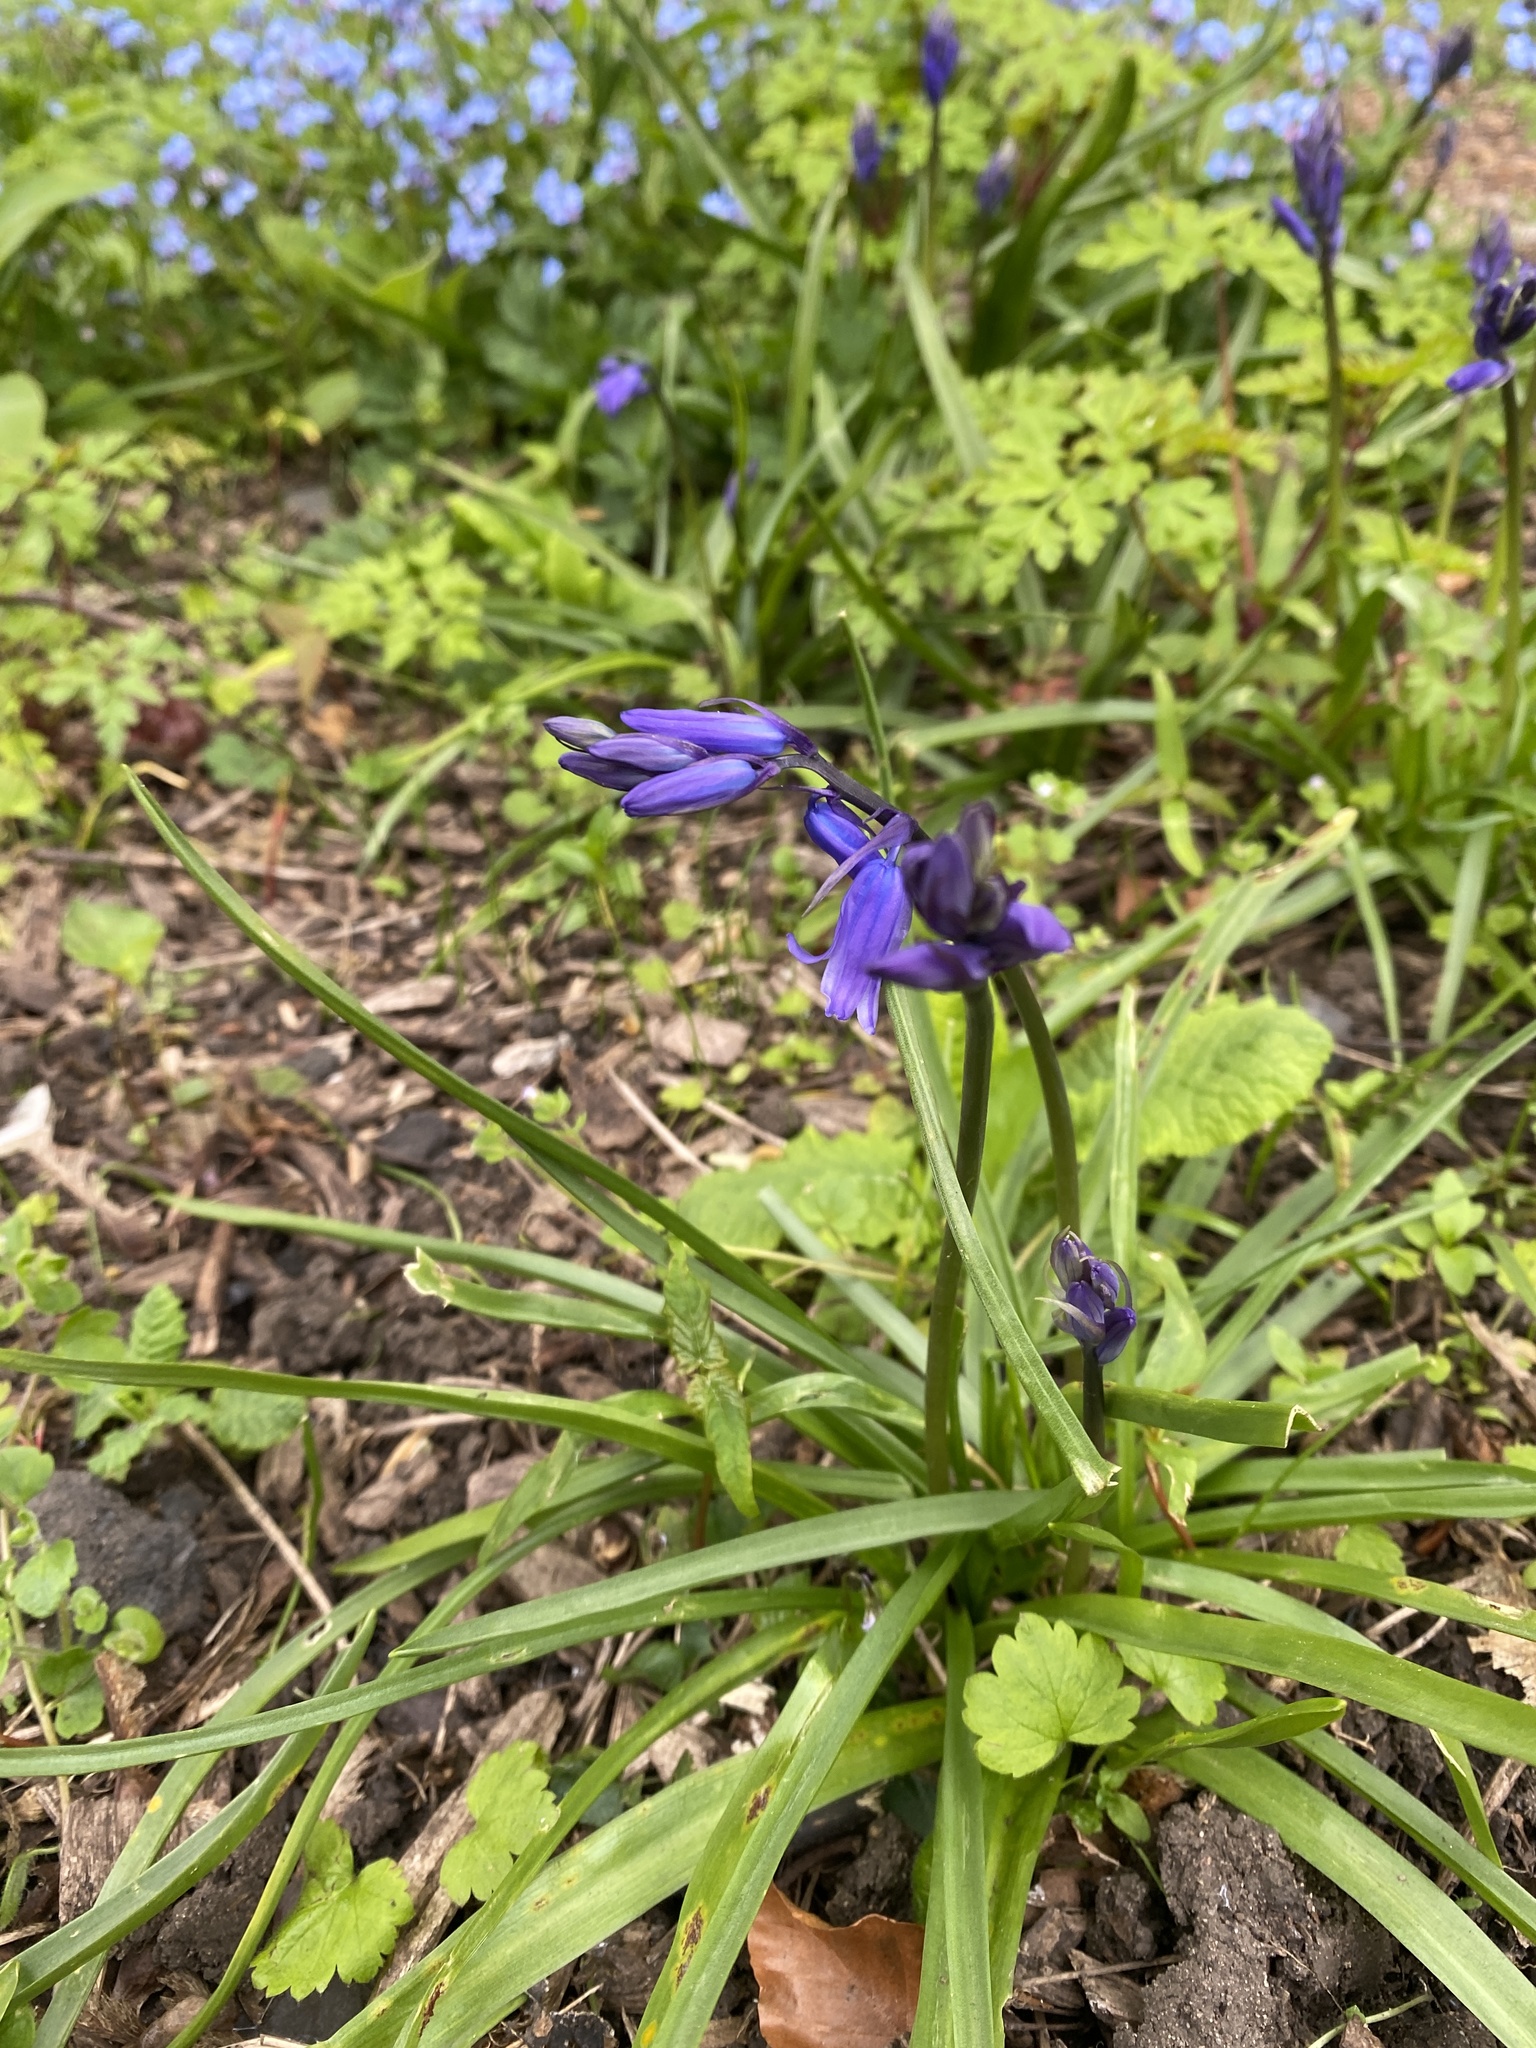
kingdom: Plantae
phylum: Tracheophyta
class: Liliopsida
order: Asparagales
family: Asparagaceae
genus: Hyacinthoides
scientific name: Hyacinthoides non-scripta
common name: Bluebell
